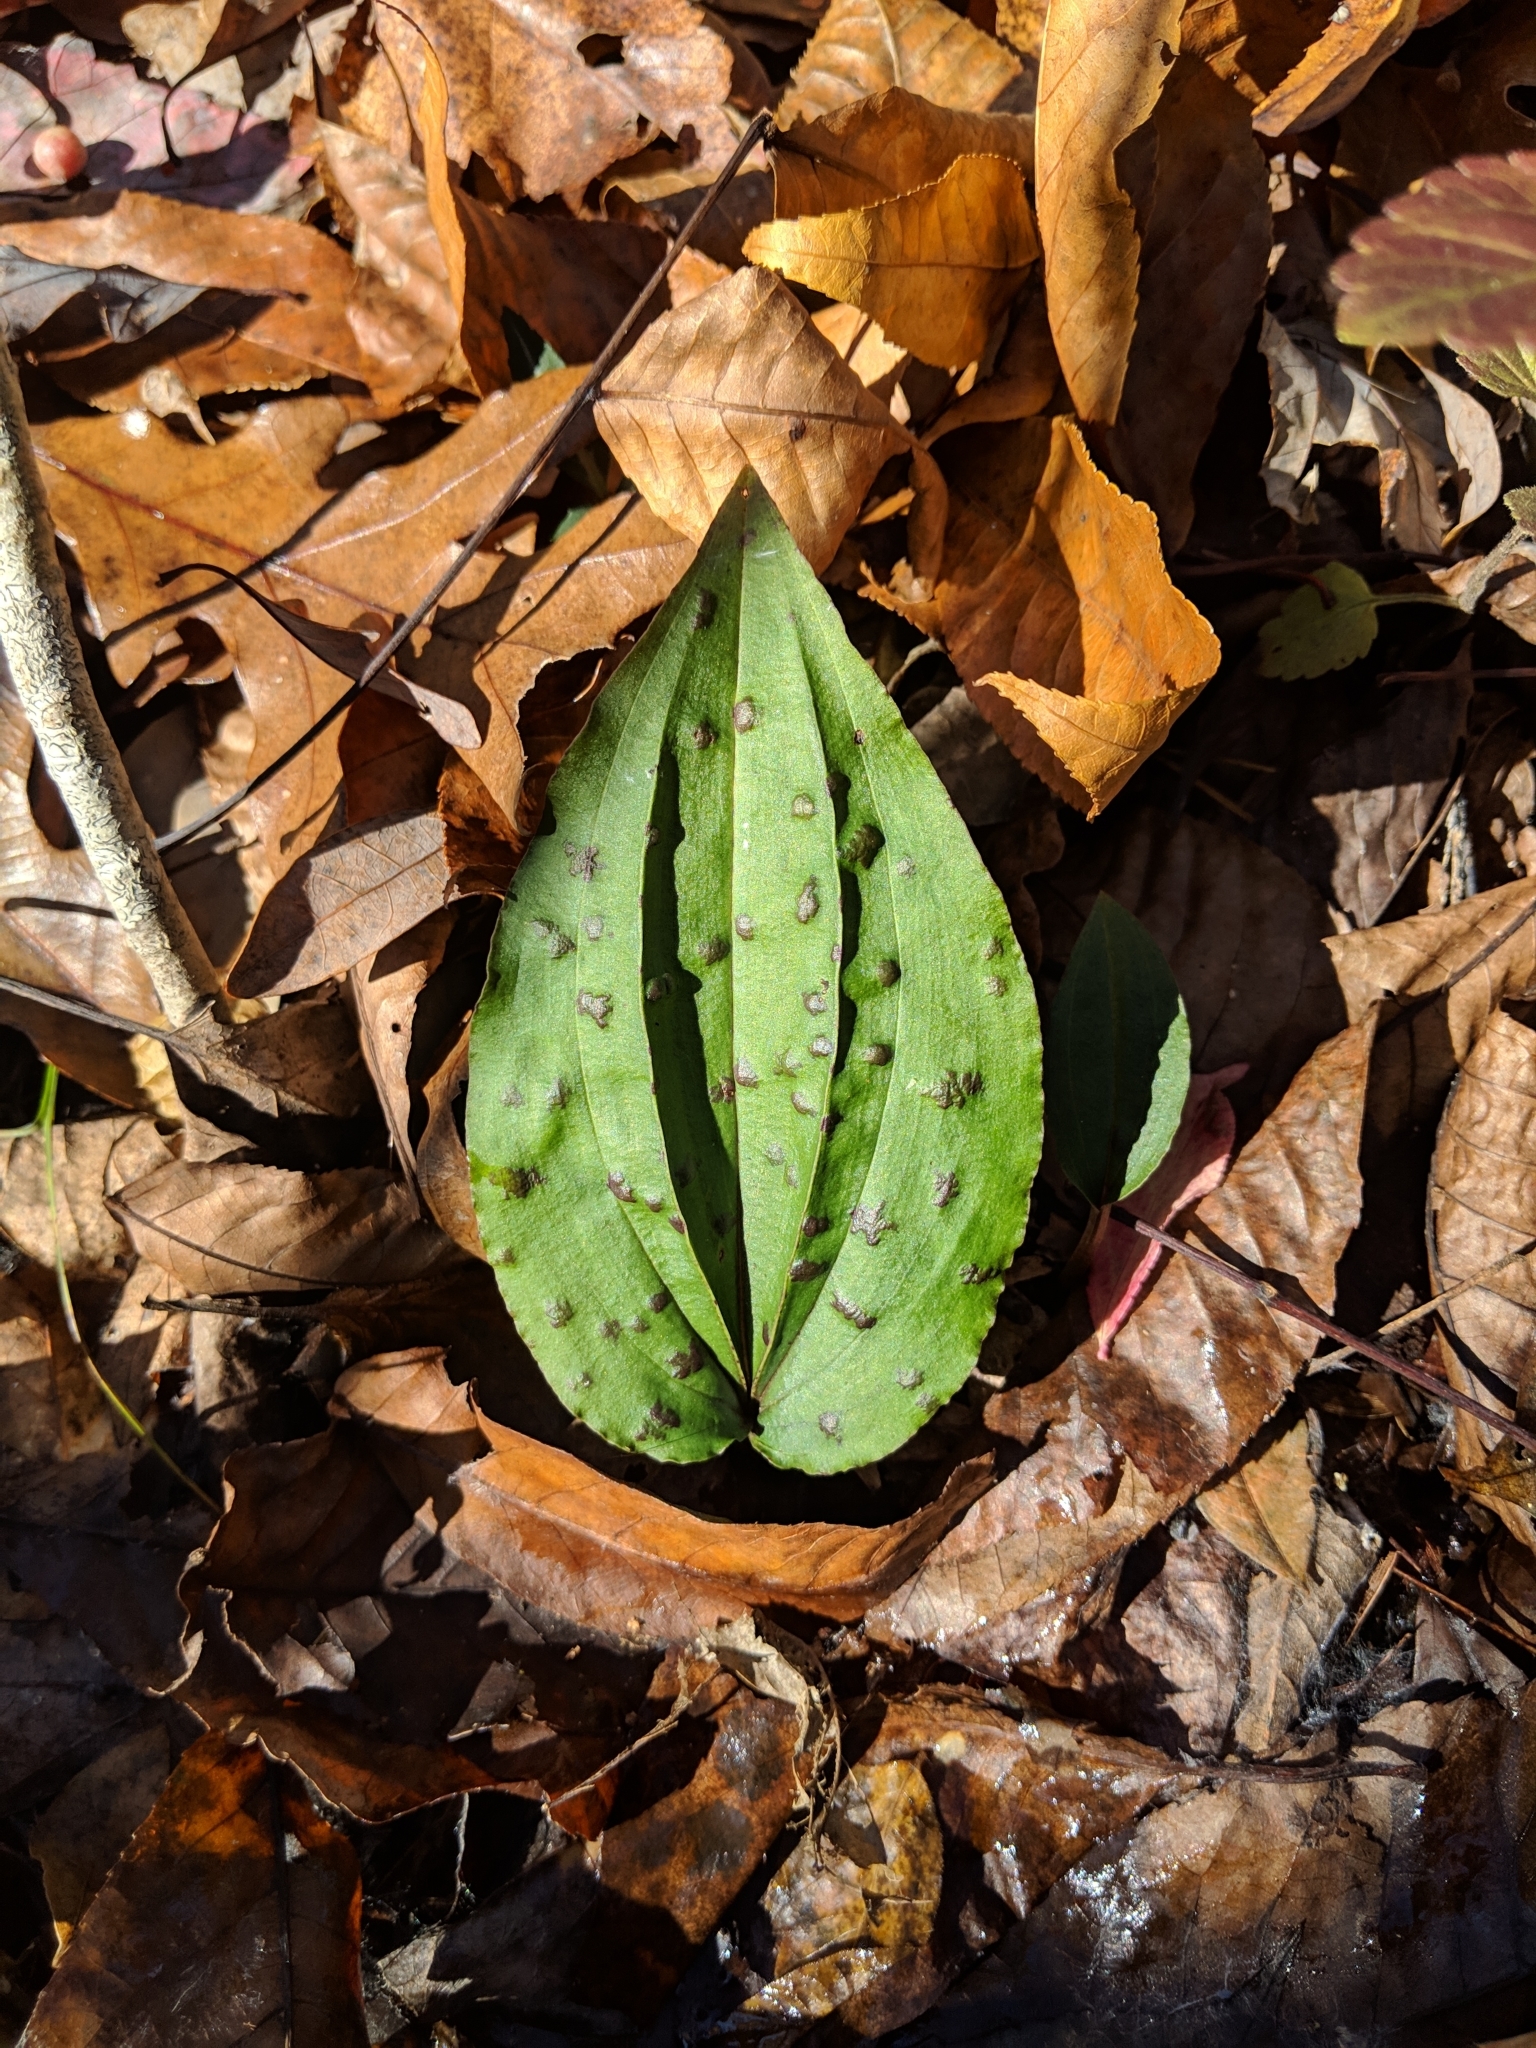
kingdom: Plantae
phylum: Tracheophyta
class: Liliopsida
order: Asparagales
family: Orchidaceae
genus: Tipularia
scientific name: Tipularia discolor
